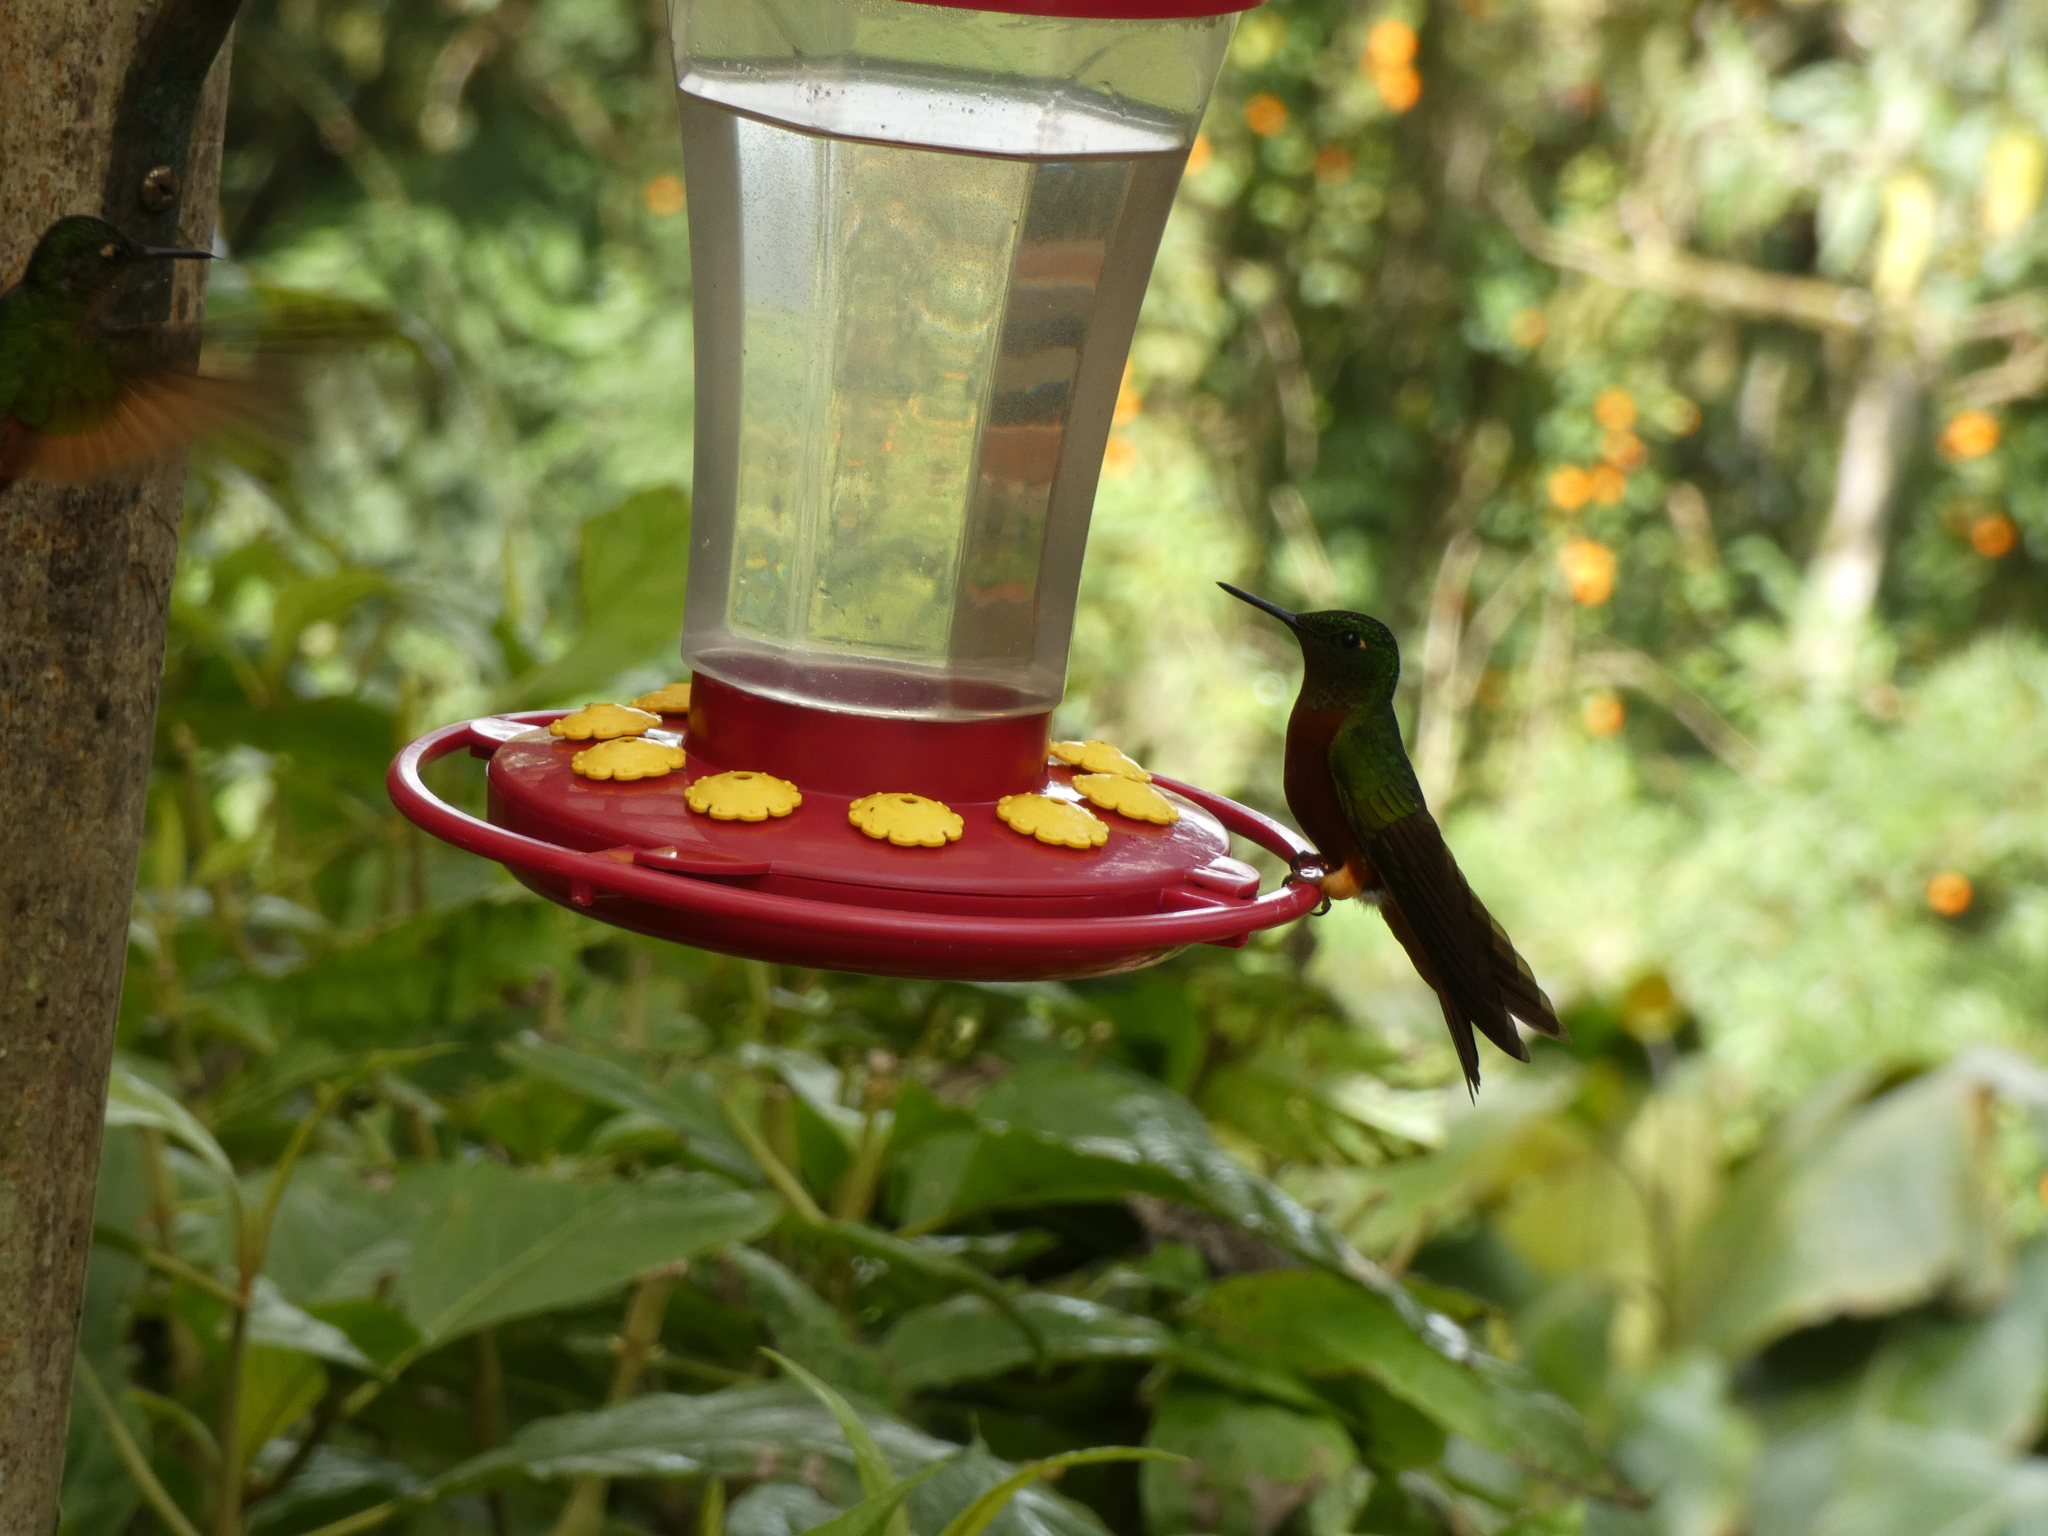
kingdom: Animalia
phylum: Chordata
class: Aves
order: Apodiformes
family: Trochilidae
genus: Boissonneaua
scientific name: Boissonneaua matthewsii
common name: Chestnut-breasted coronet
